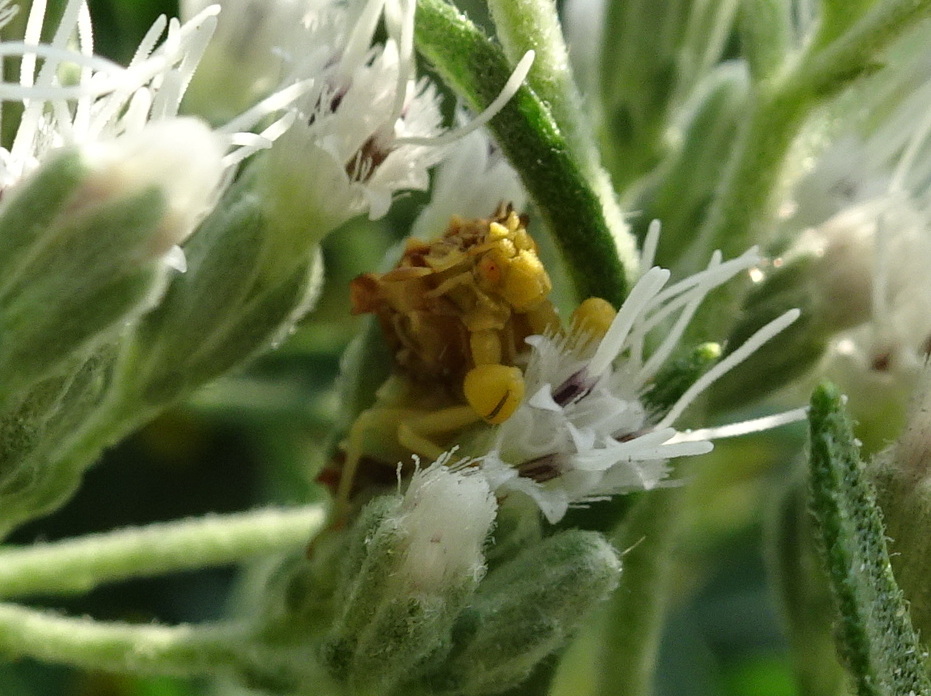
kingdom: Animalia
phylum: Arthropoda
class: Insecta
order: Hemiptera
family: Reduviidae
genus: Phymata
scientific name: Phymata fasciata
